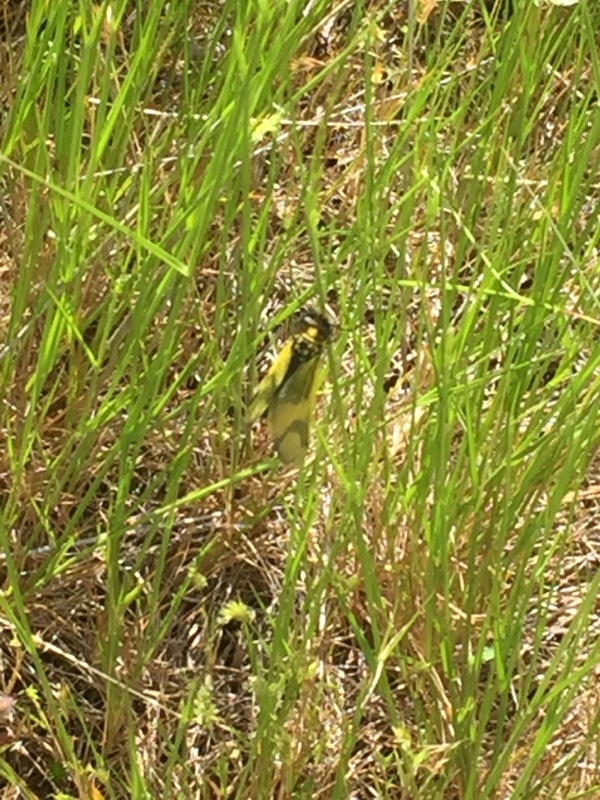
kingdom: Animalia
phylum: Arthropoda
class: Insecta
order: Neuroptera
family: Ascalaphidae
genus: Libelloides
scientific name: Libelloides longicornis
